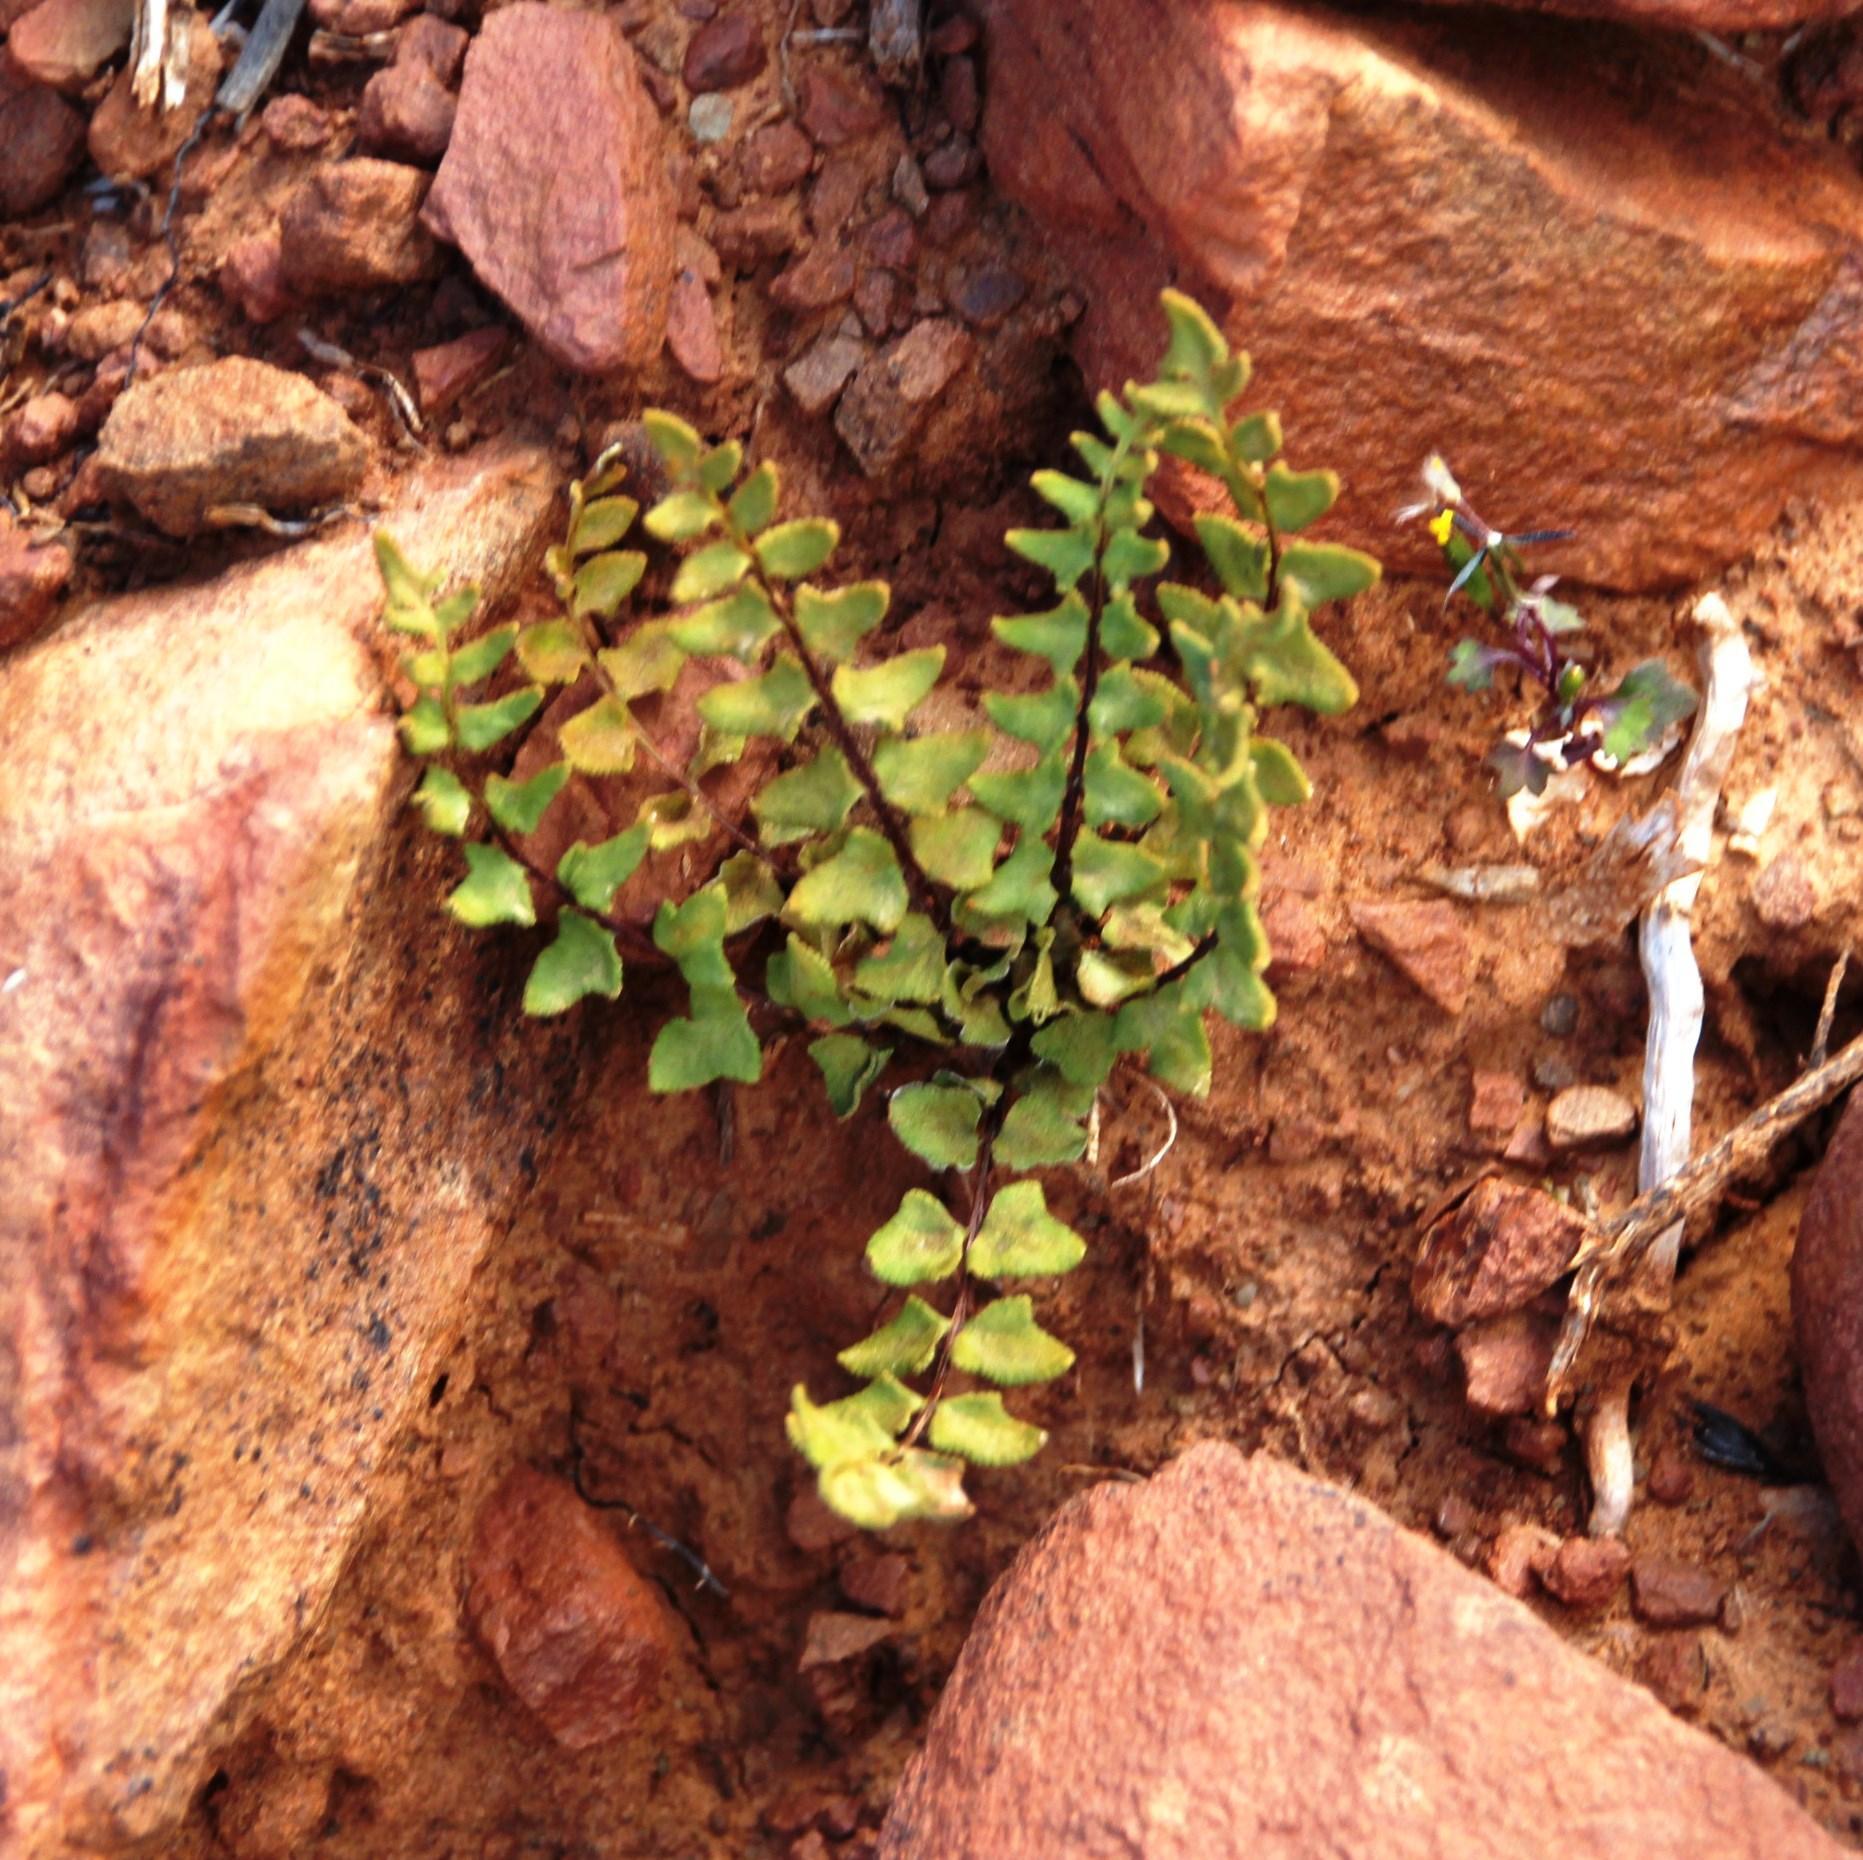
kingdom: Plantae
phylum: Tracheophyta
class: Polypodiopsida
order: Polypodiales
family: Pteridaceae
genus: Cheilanthes
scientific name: Cheilanthes hastata
